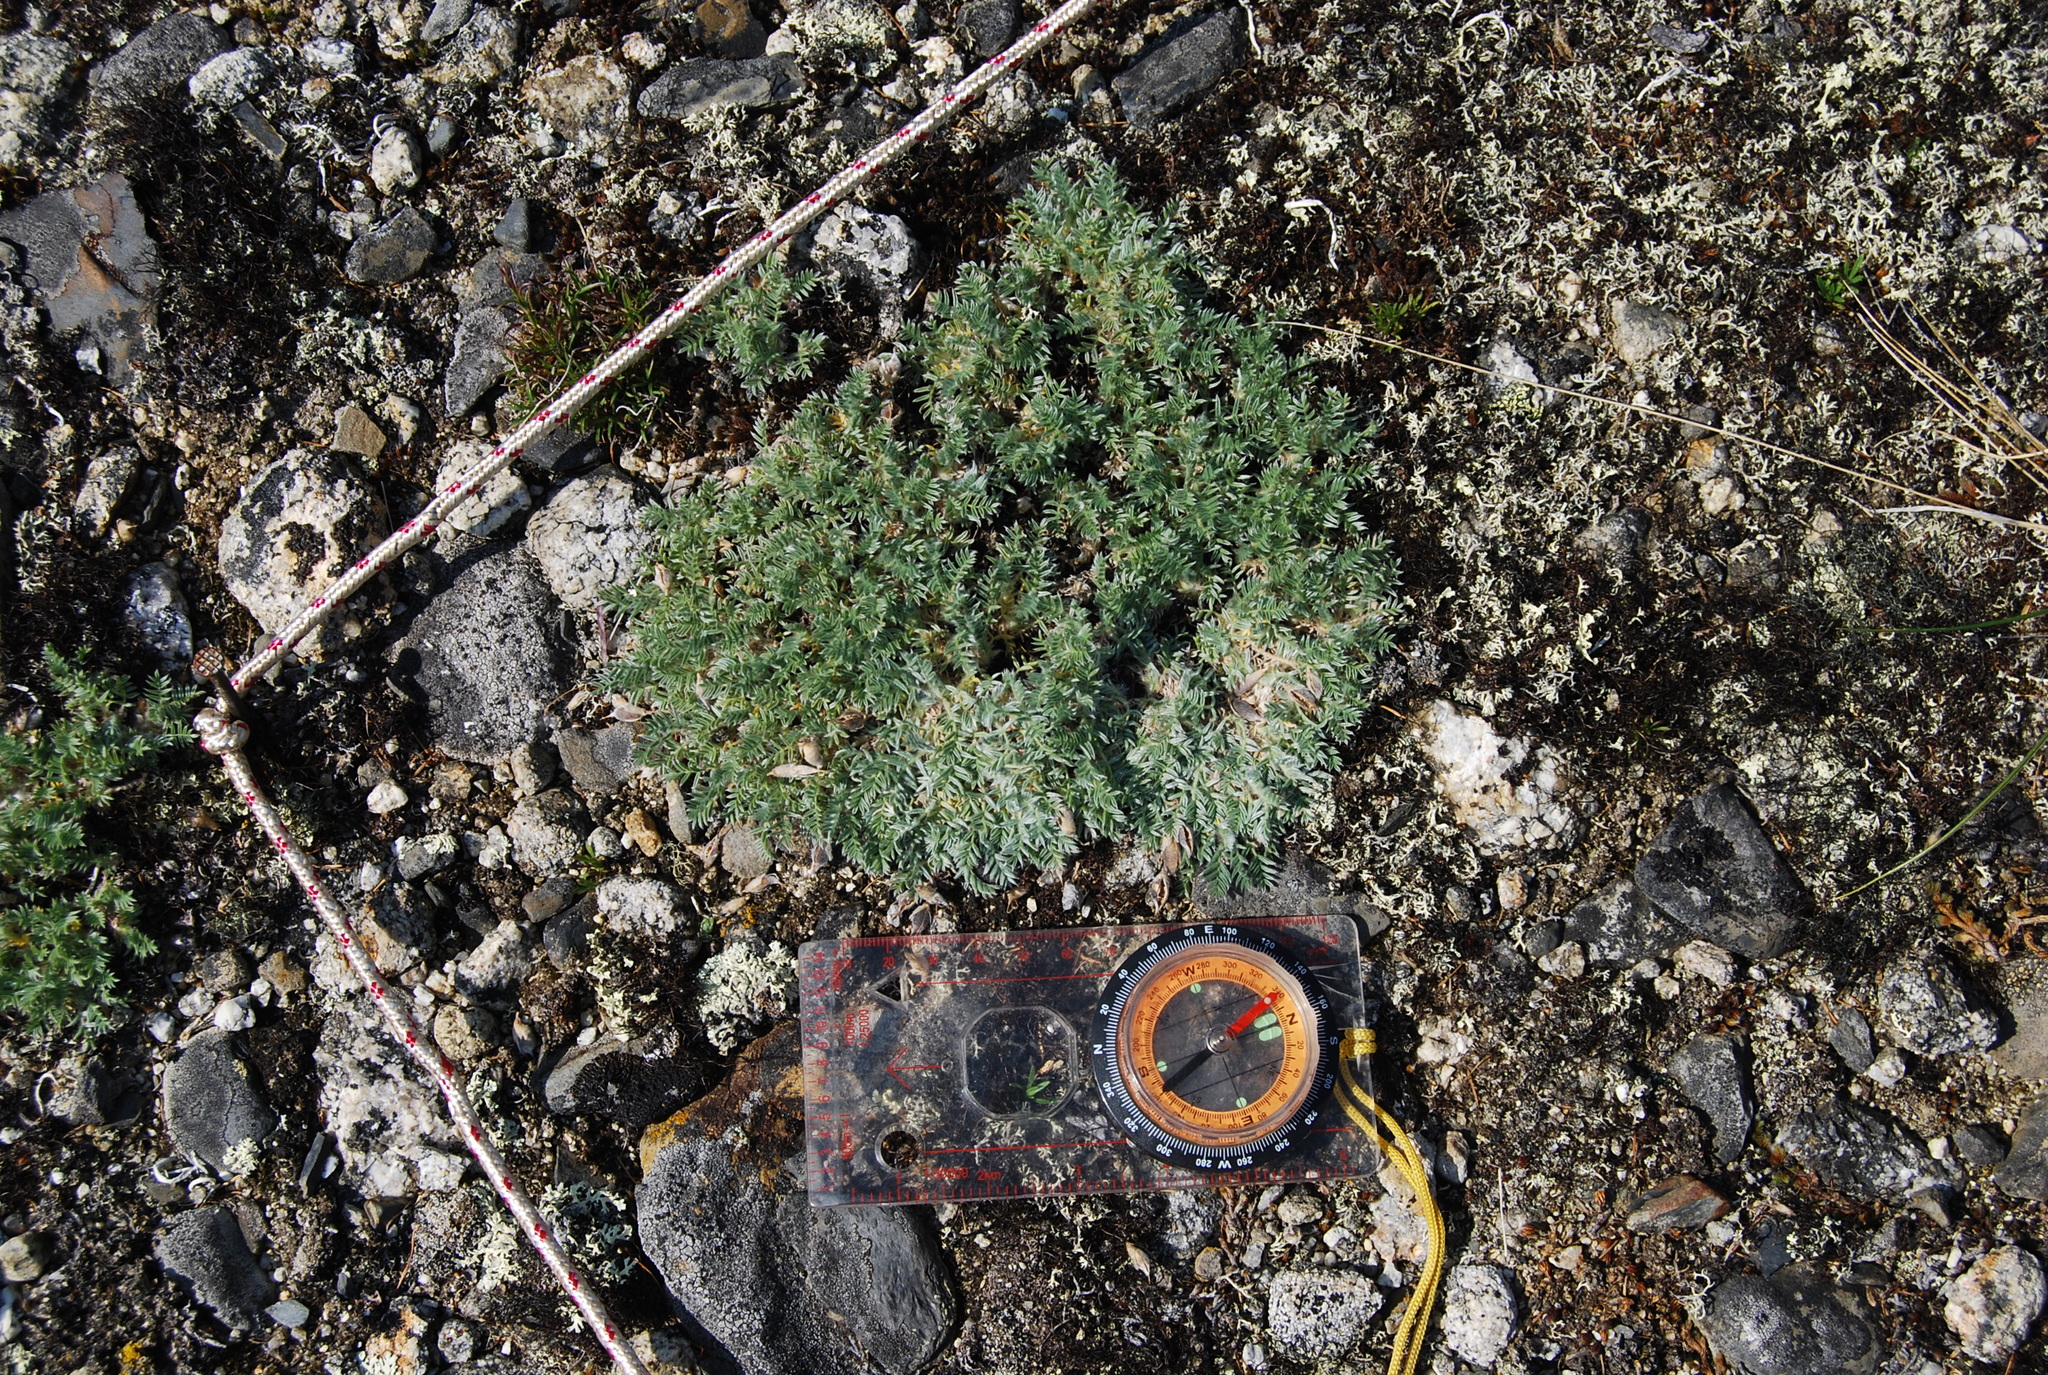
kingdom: Plantae
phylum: Tracheophyta
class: Magnoliopsida
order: Fabales
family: Fabaceae
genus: Oxytropis
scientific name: Oxytropis susumanica
